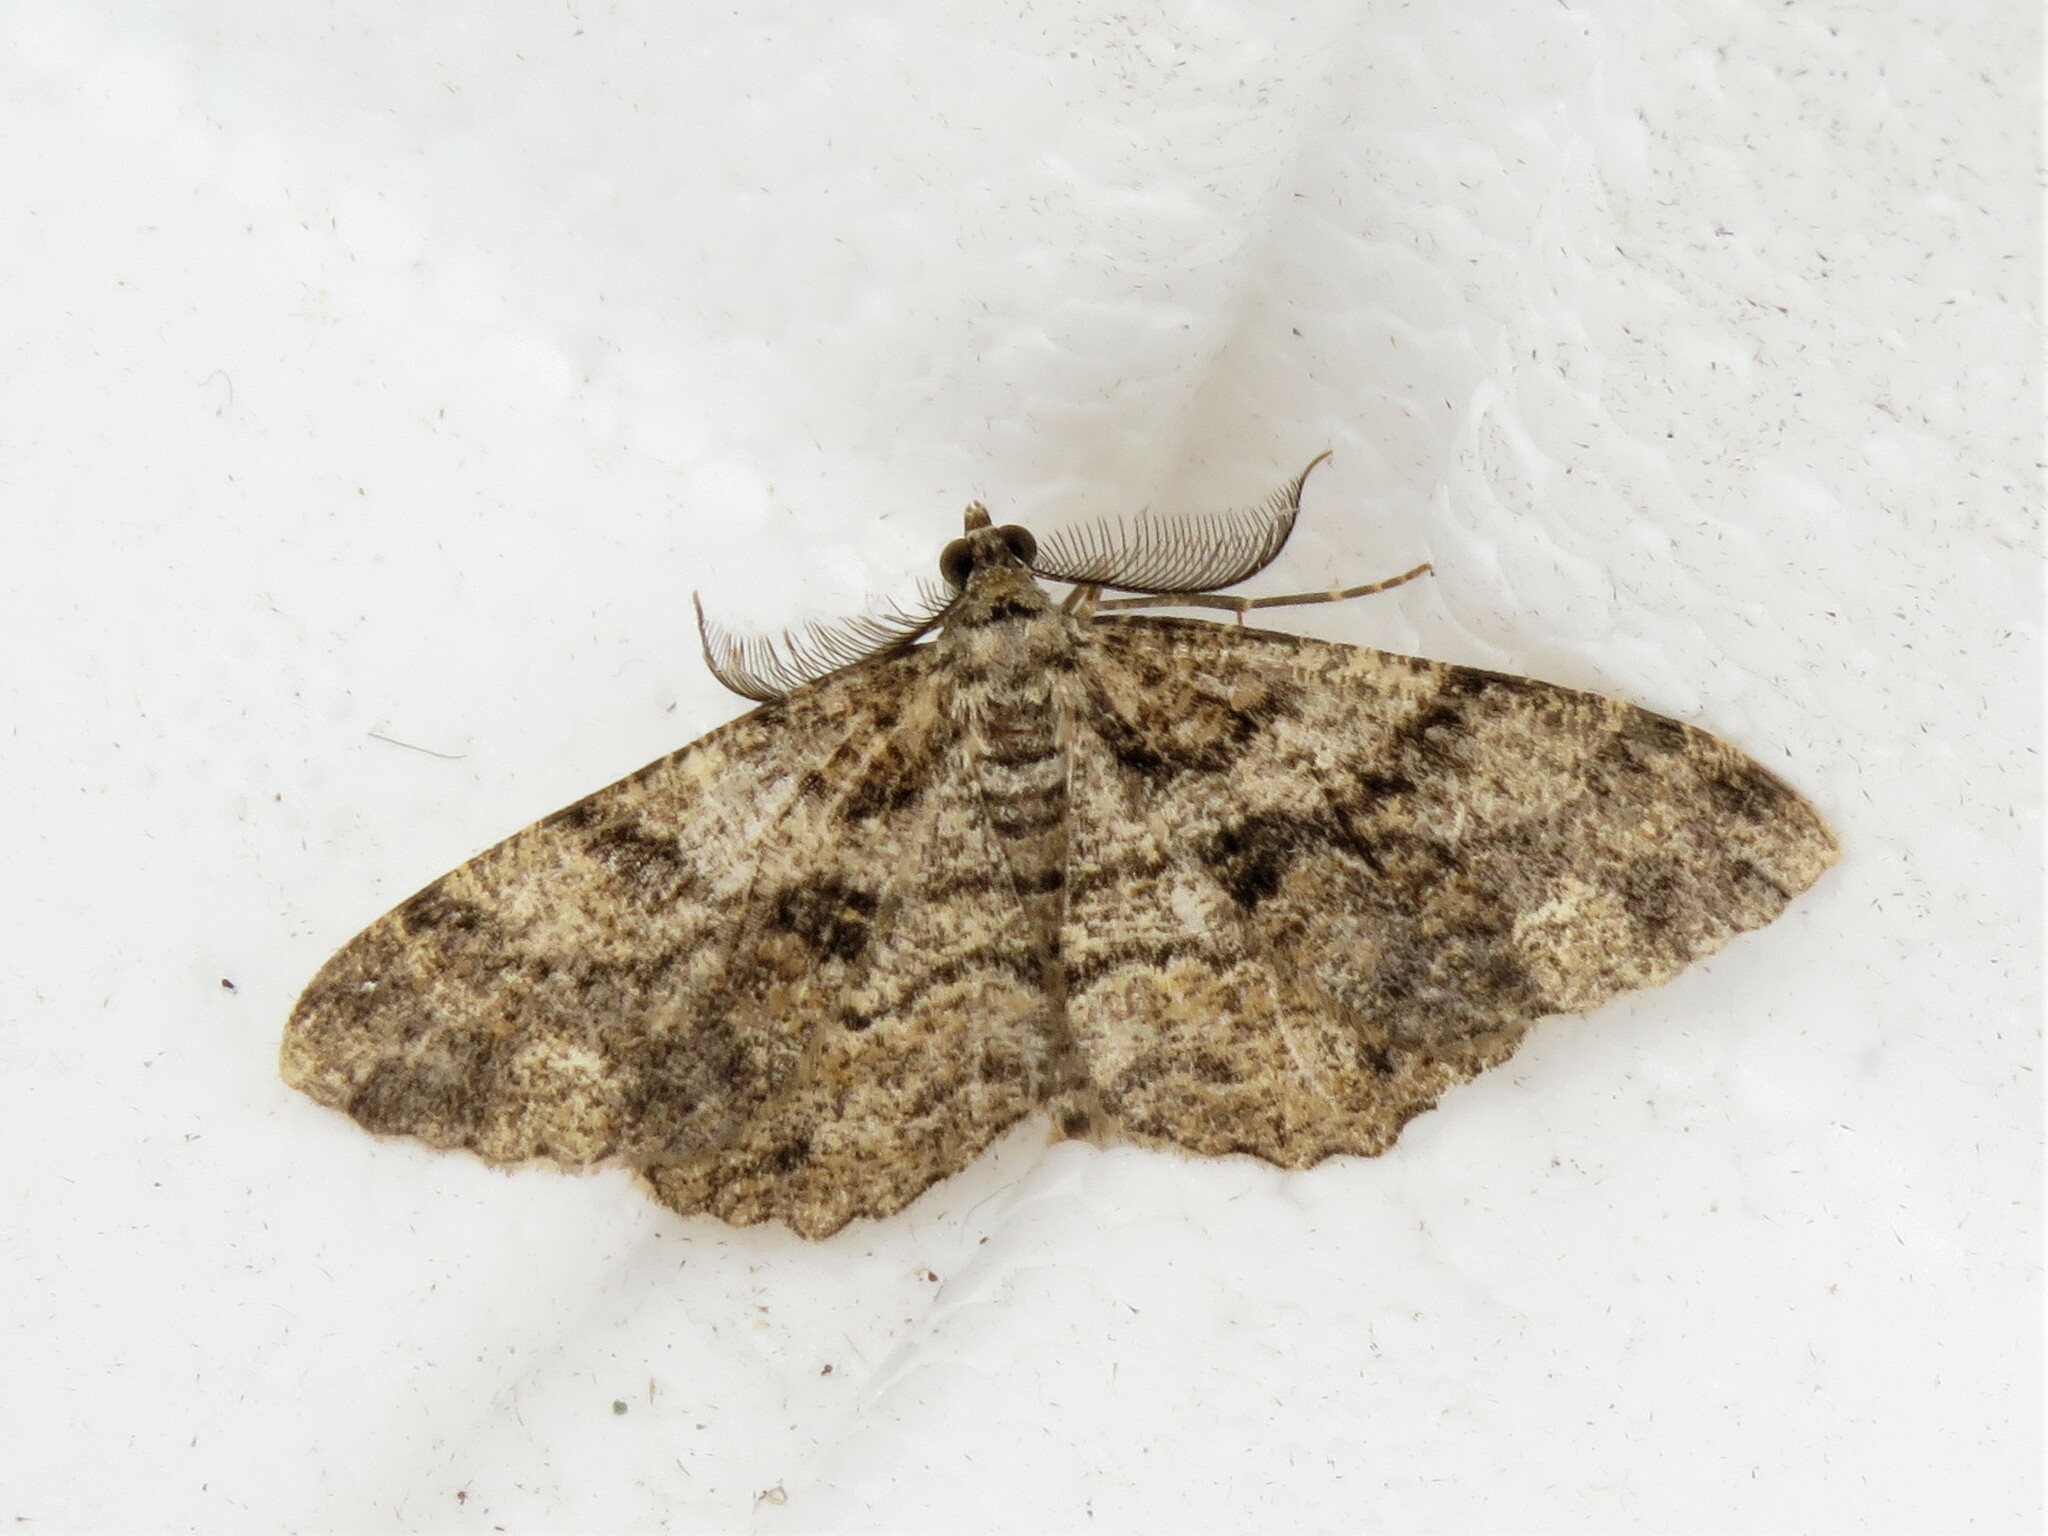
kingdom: Animalia
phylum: Arthropoda
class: Insecta
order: Lepidoptera
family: Geometridae
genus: Peribatodes
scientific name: Peribatodes secundaria
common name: Feathered beauty
